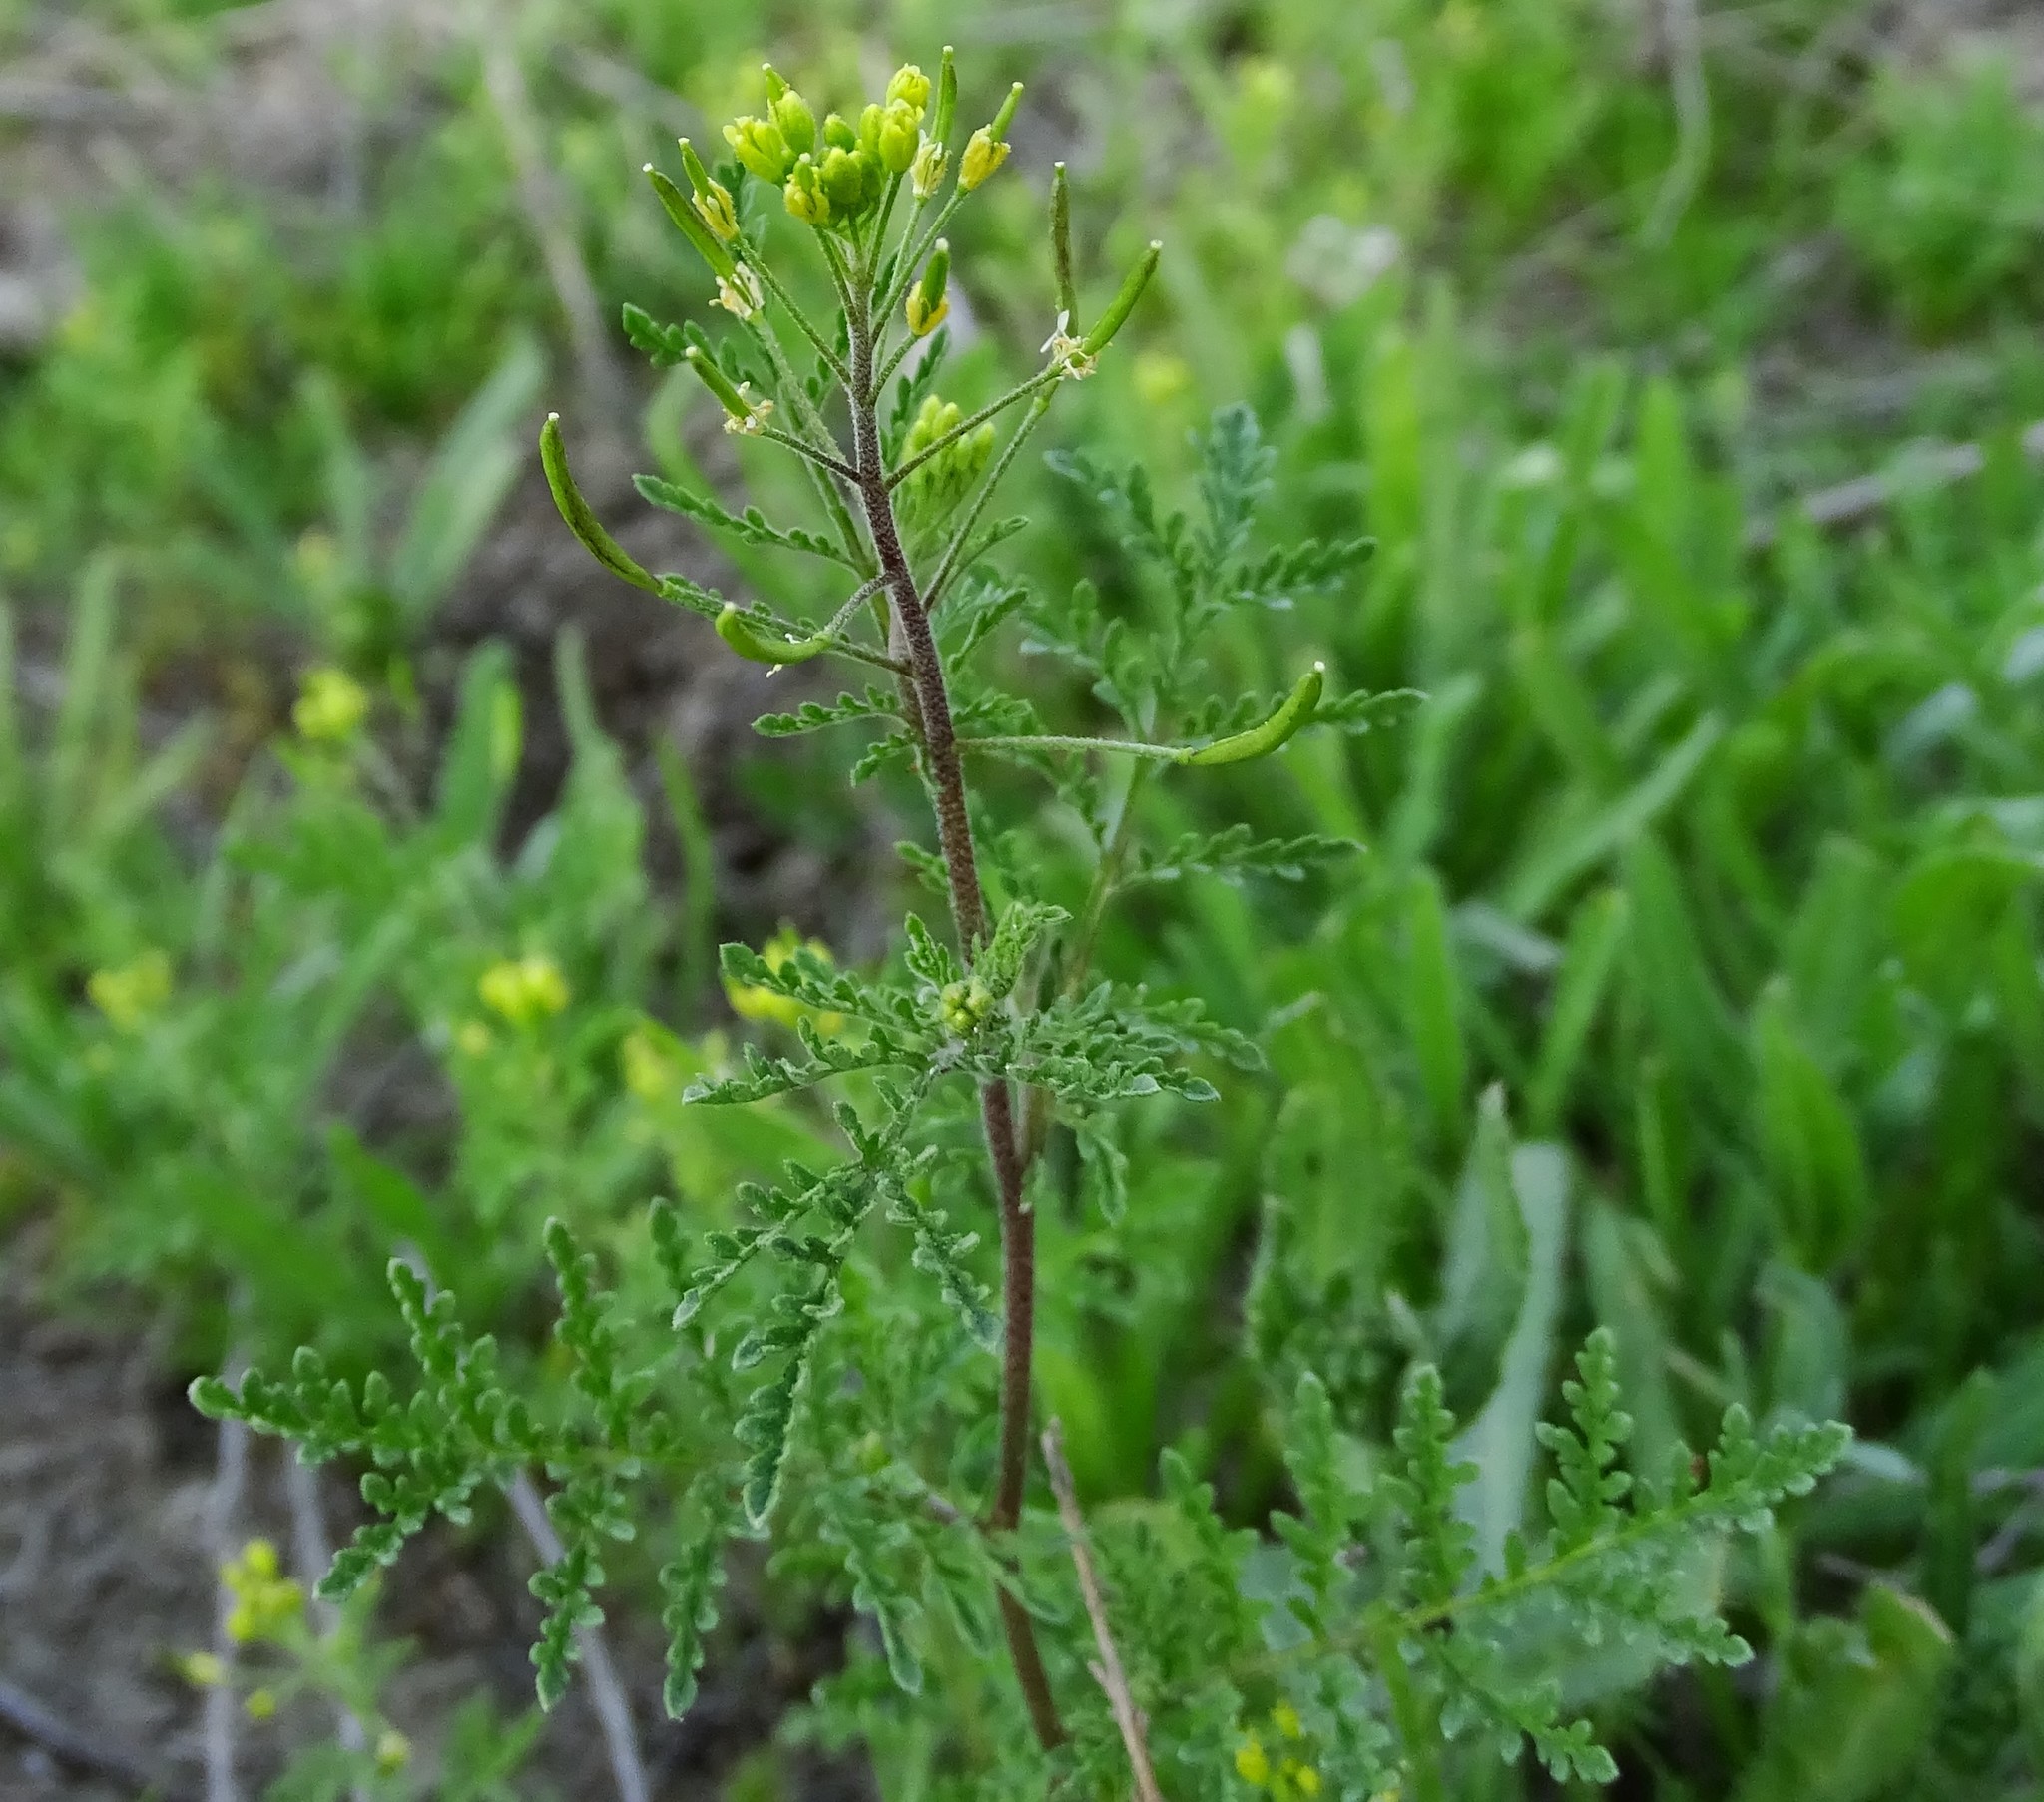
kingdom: Plantae
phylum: Tracheophyta
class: Magnoliopsida
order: Brassicales
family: Brassicaceae
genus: Descurainia
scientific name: Descurainia pinnata
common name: Western tansy mustard
